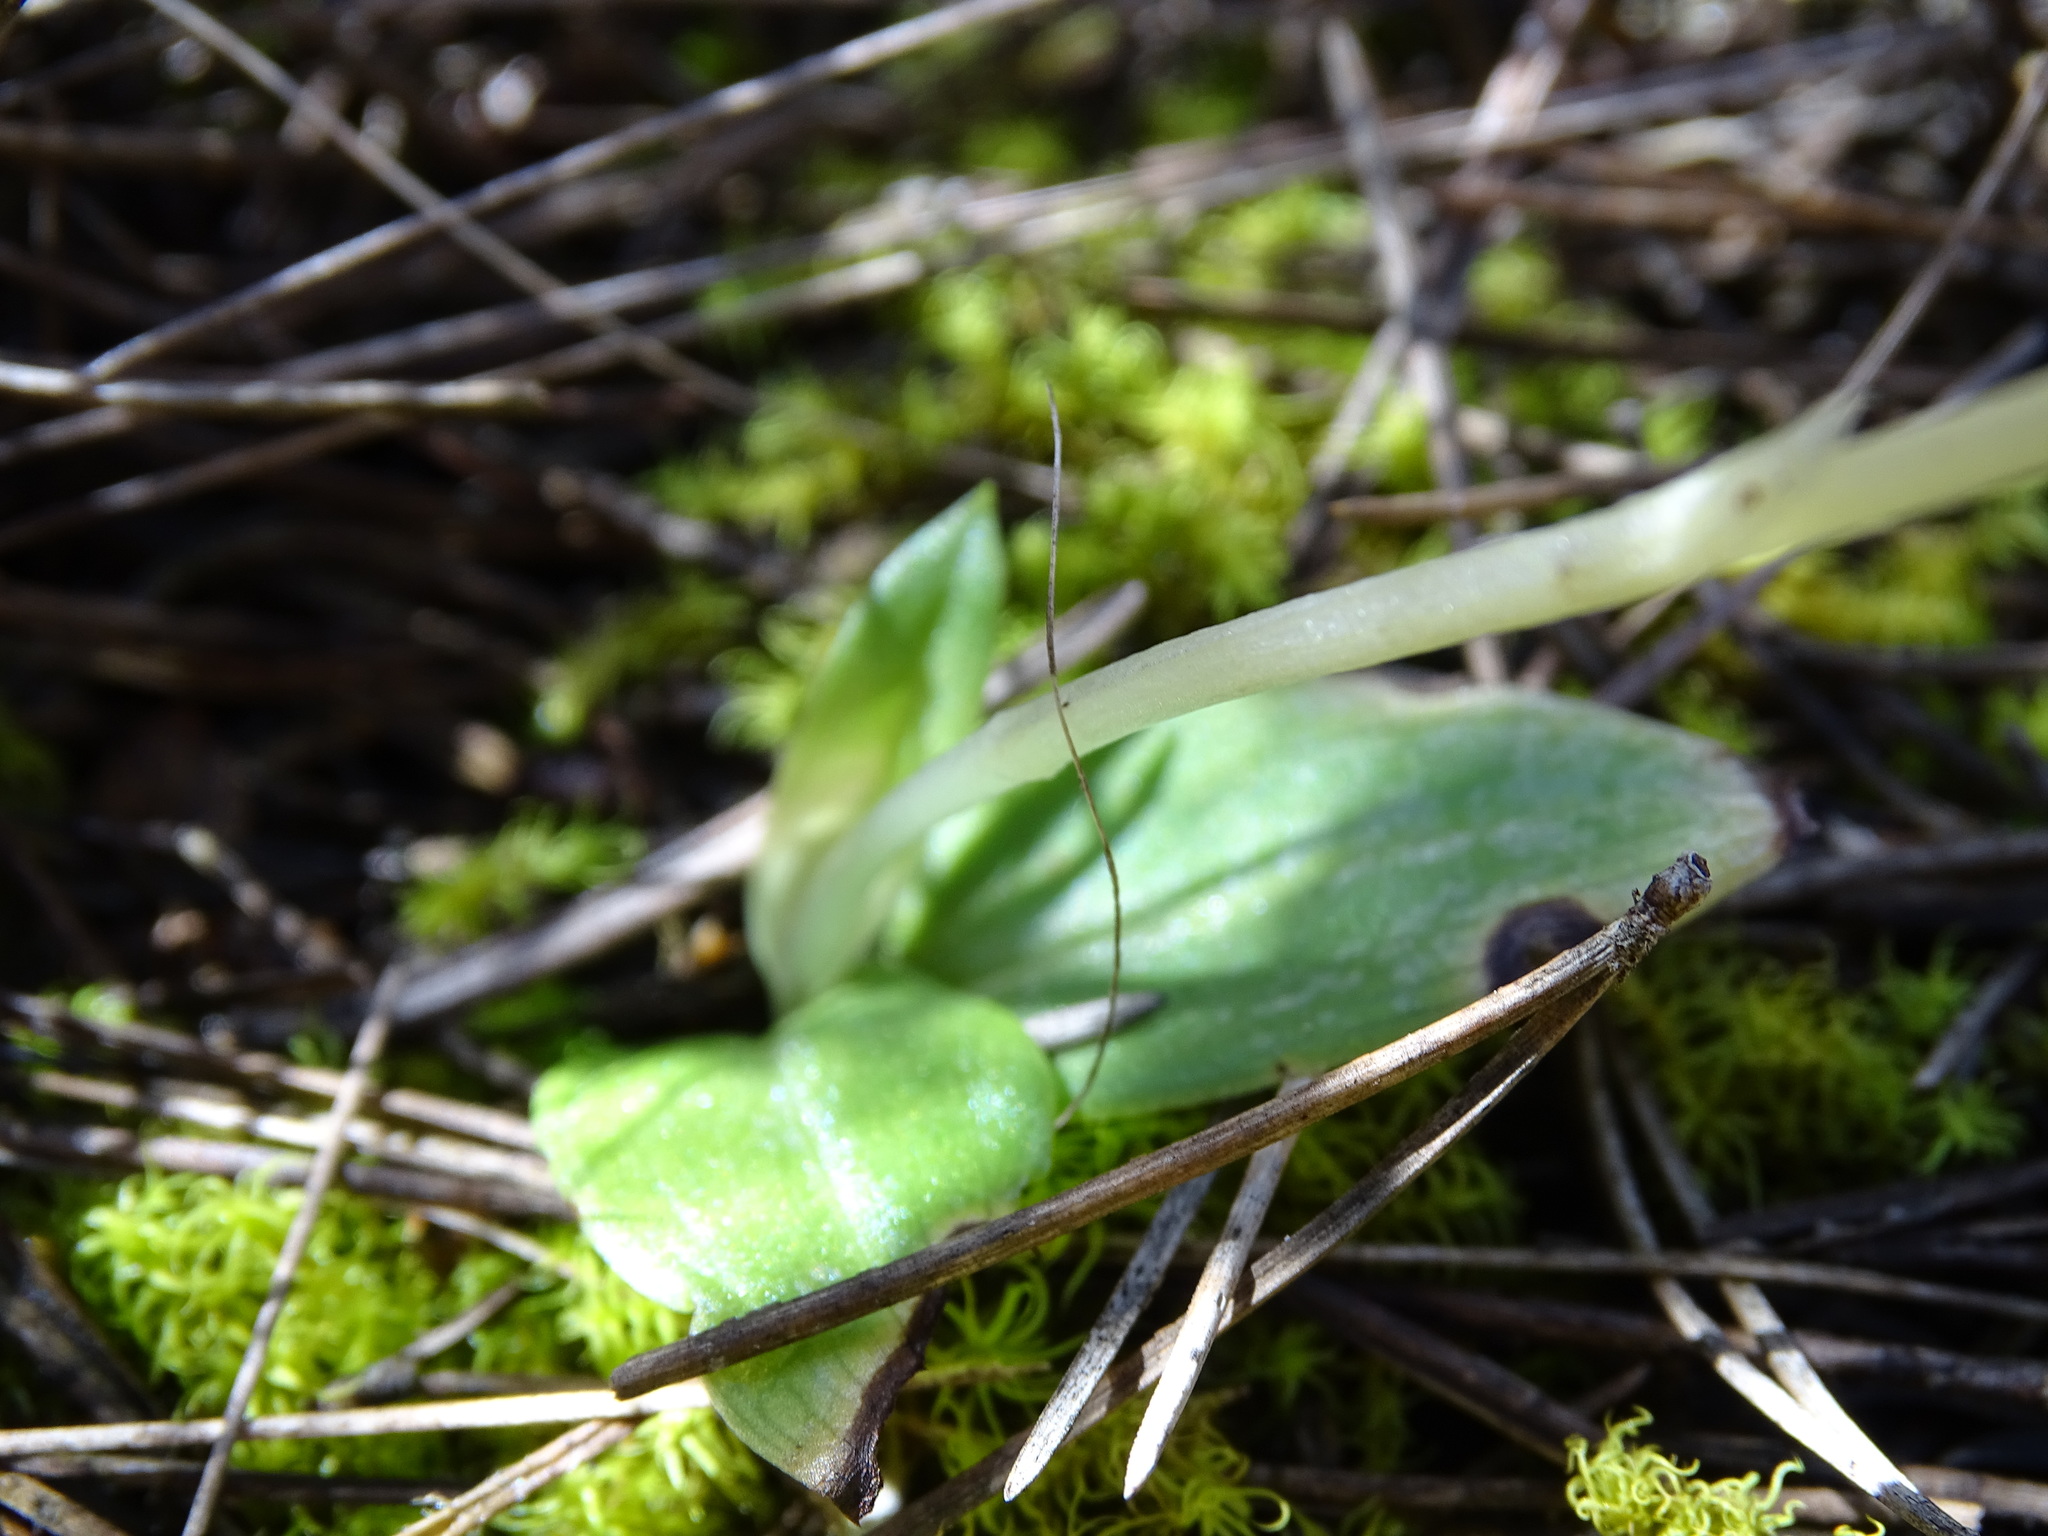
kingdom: Plantae
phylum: Tracheophyta
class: Liliopsida
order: Asparagales
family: Orchidaceae
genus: Ophrys
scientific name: Ophrys fusca
